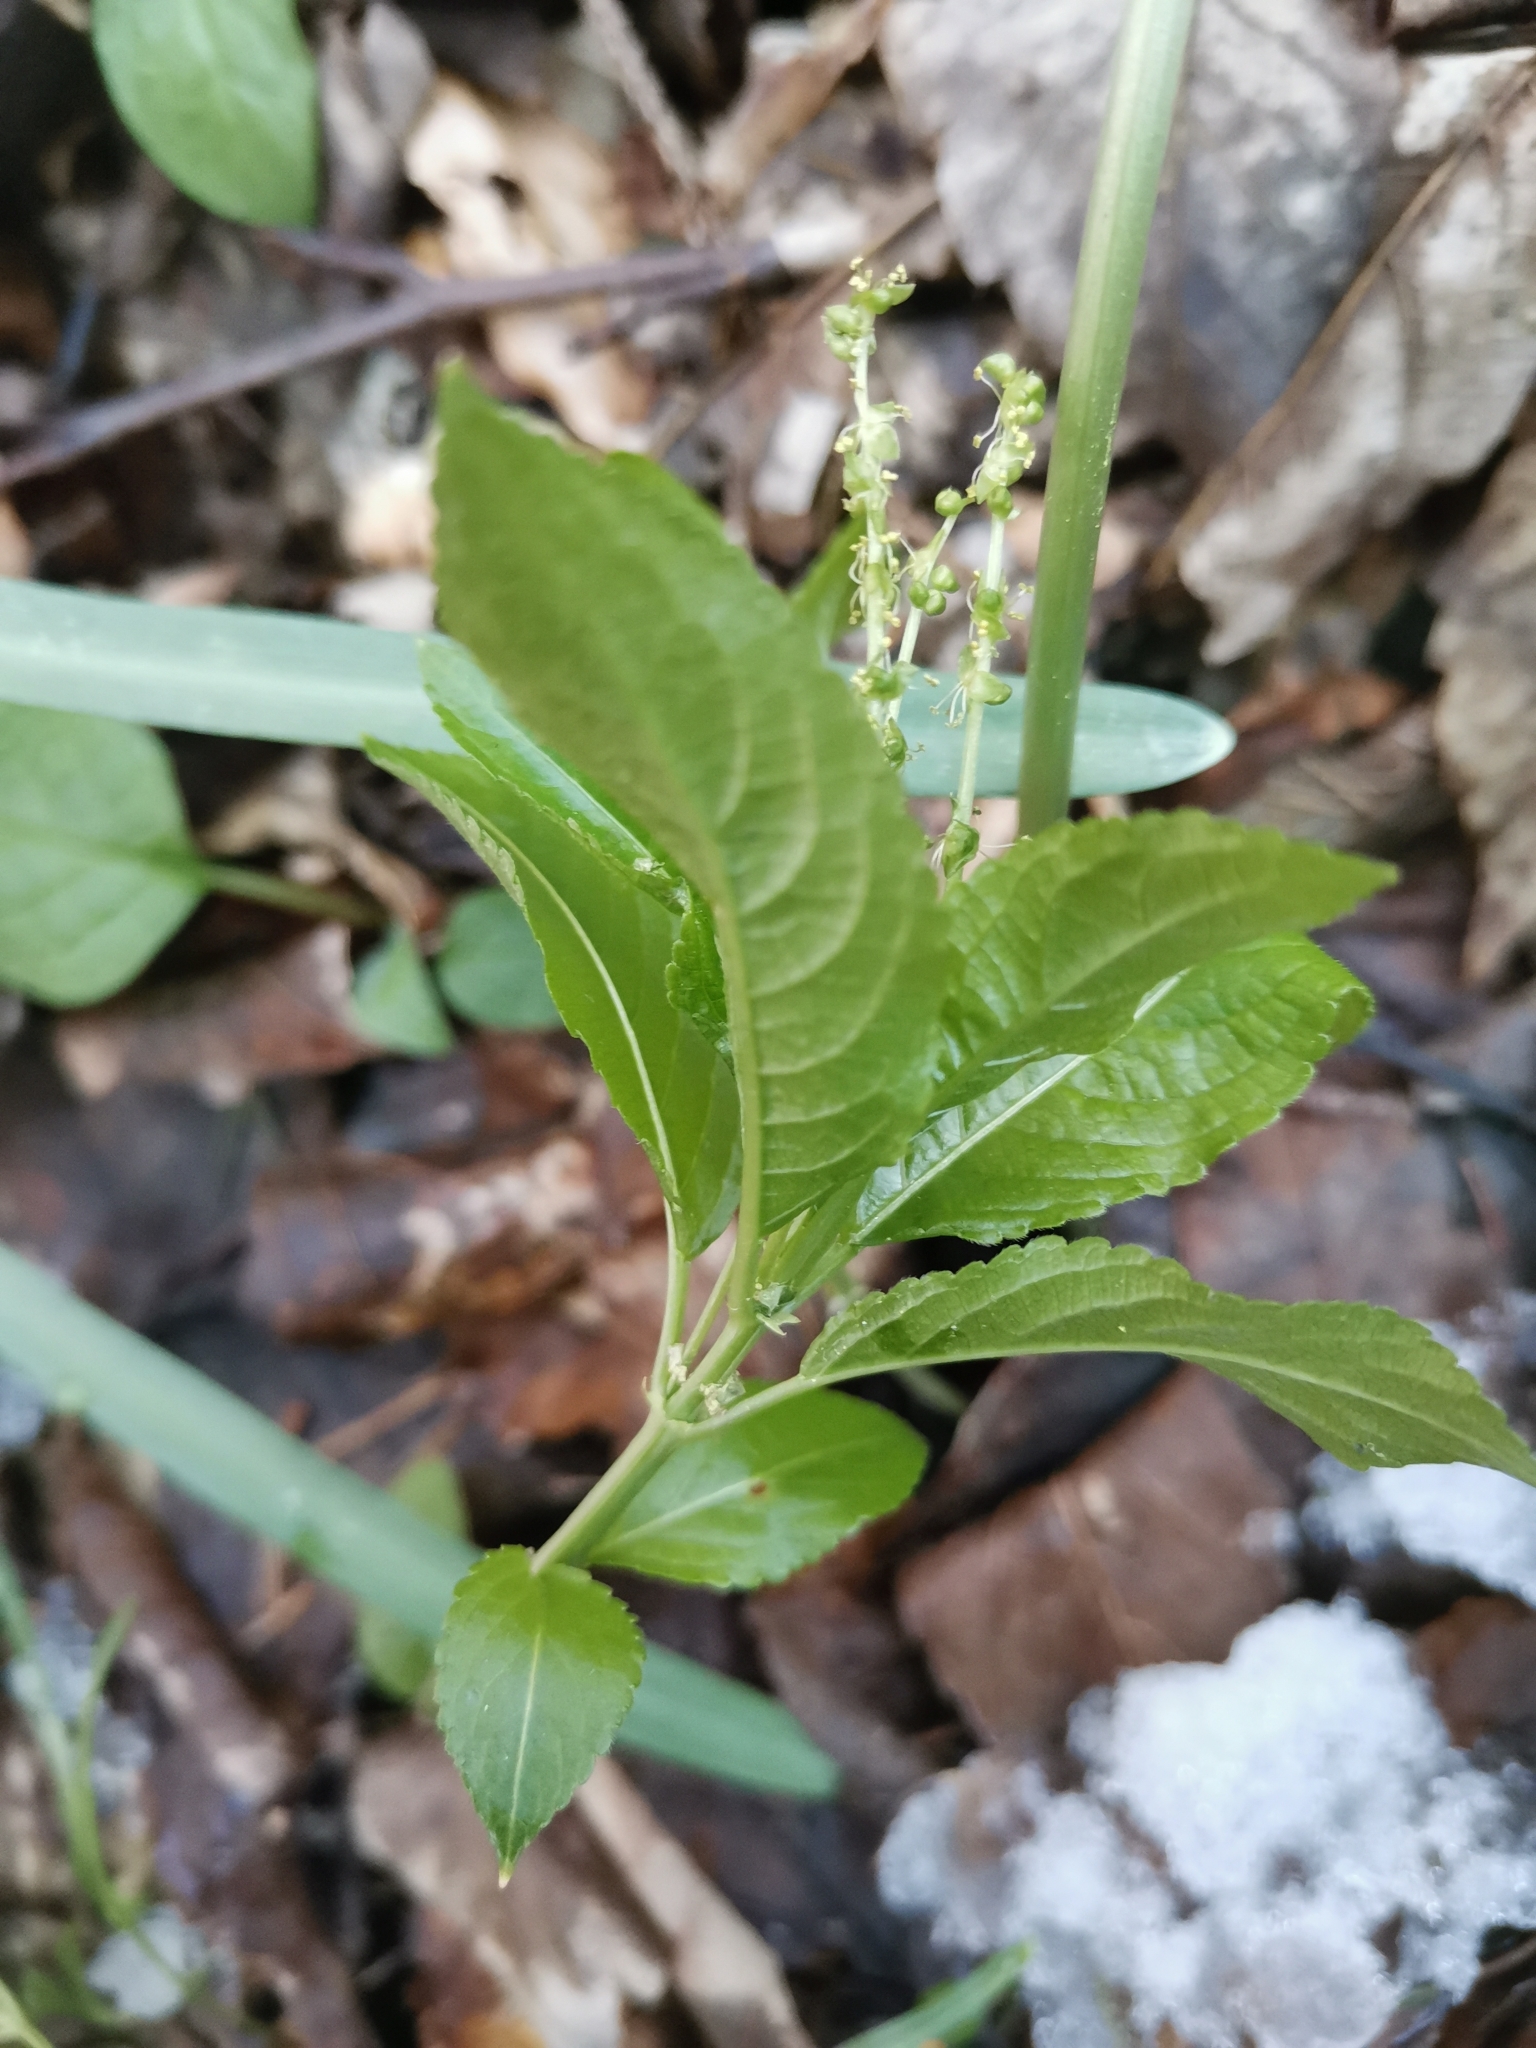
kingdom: Plantae
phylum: Tracheophyta
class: Magnoliopsida
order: Malpighiales
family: Euphorbiaceae
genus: Mercurialis
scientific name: Mercurialis perennis
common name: Dog mercury
